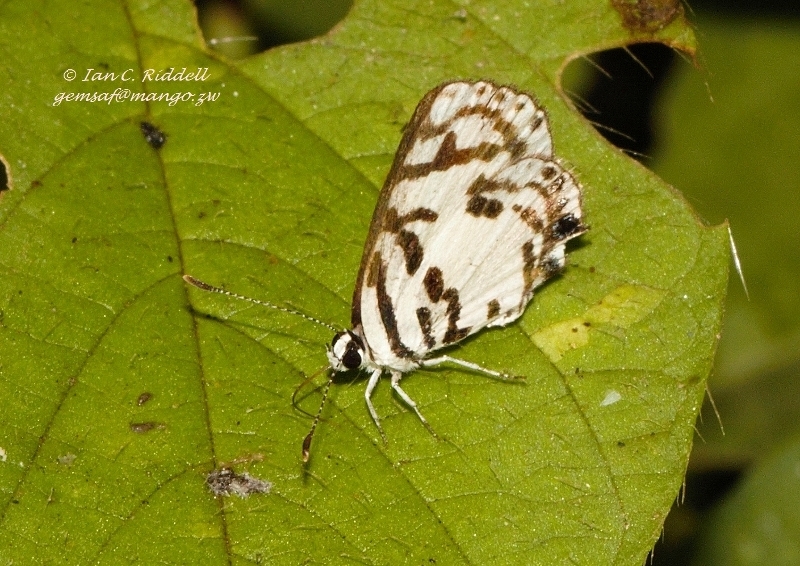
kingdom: Animalia
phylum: Arthropoda
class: Insecta
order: Lepidoptera
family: Lycaenidae
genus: Tuxentius
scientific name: Tuxentius
